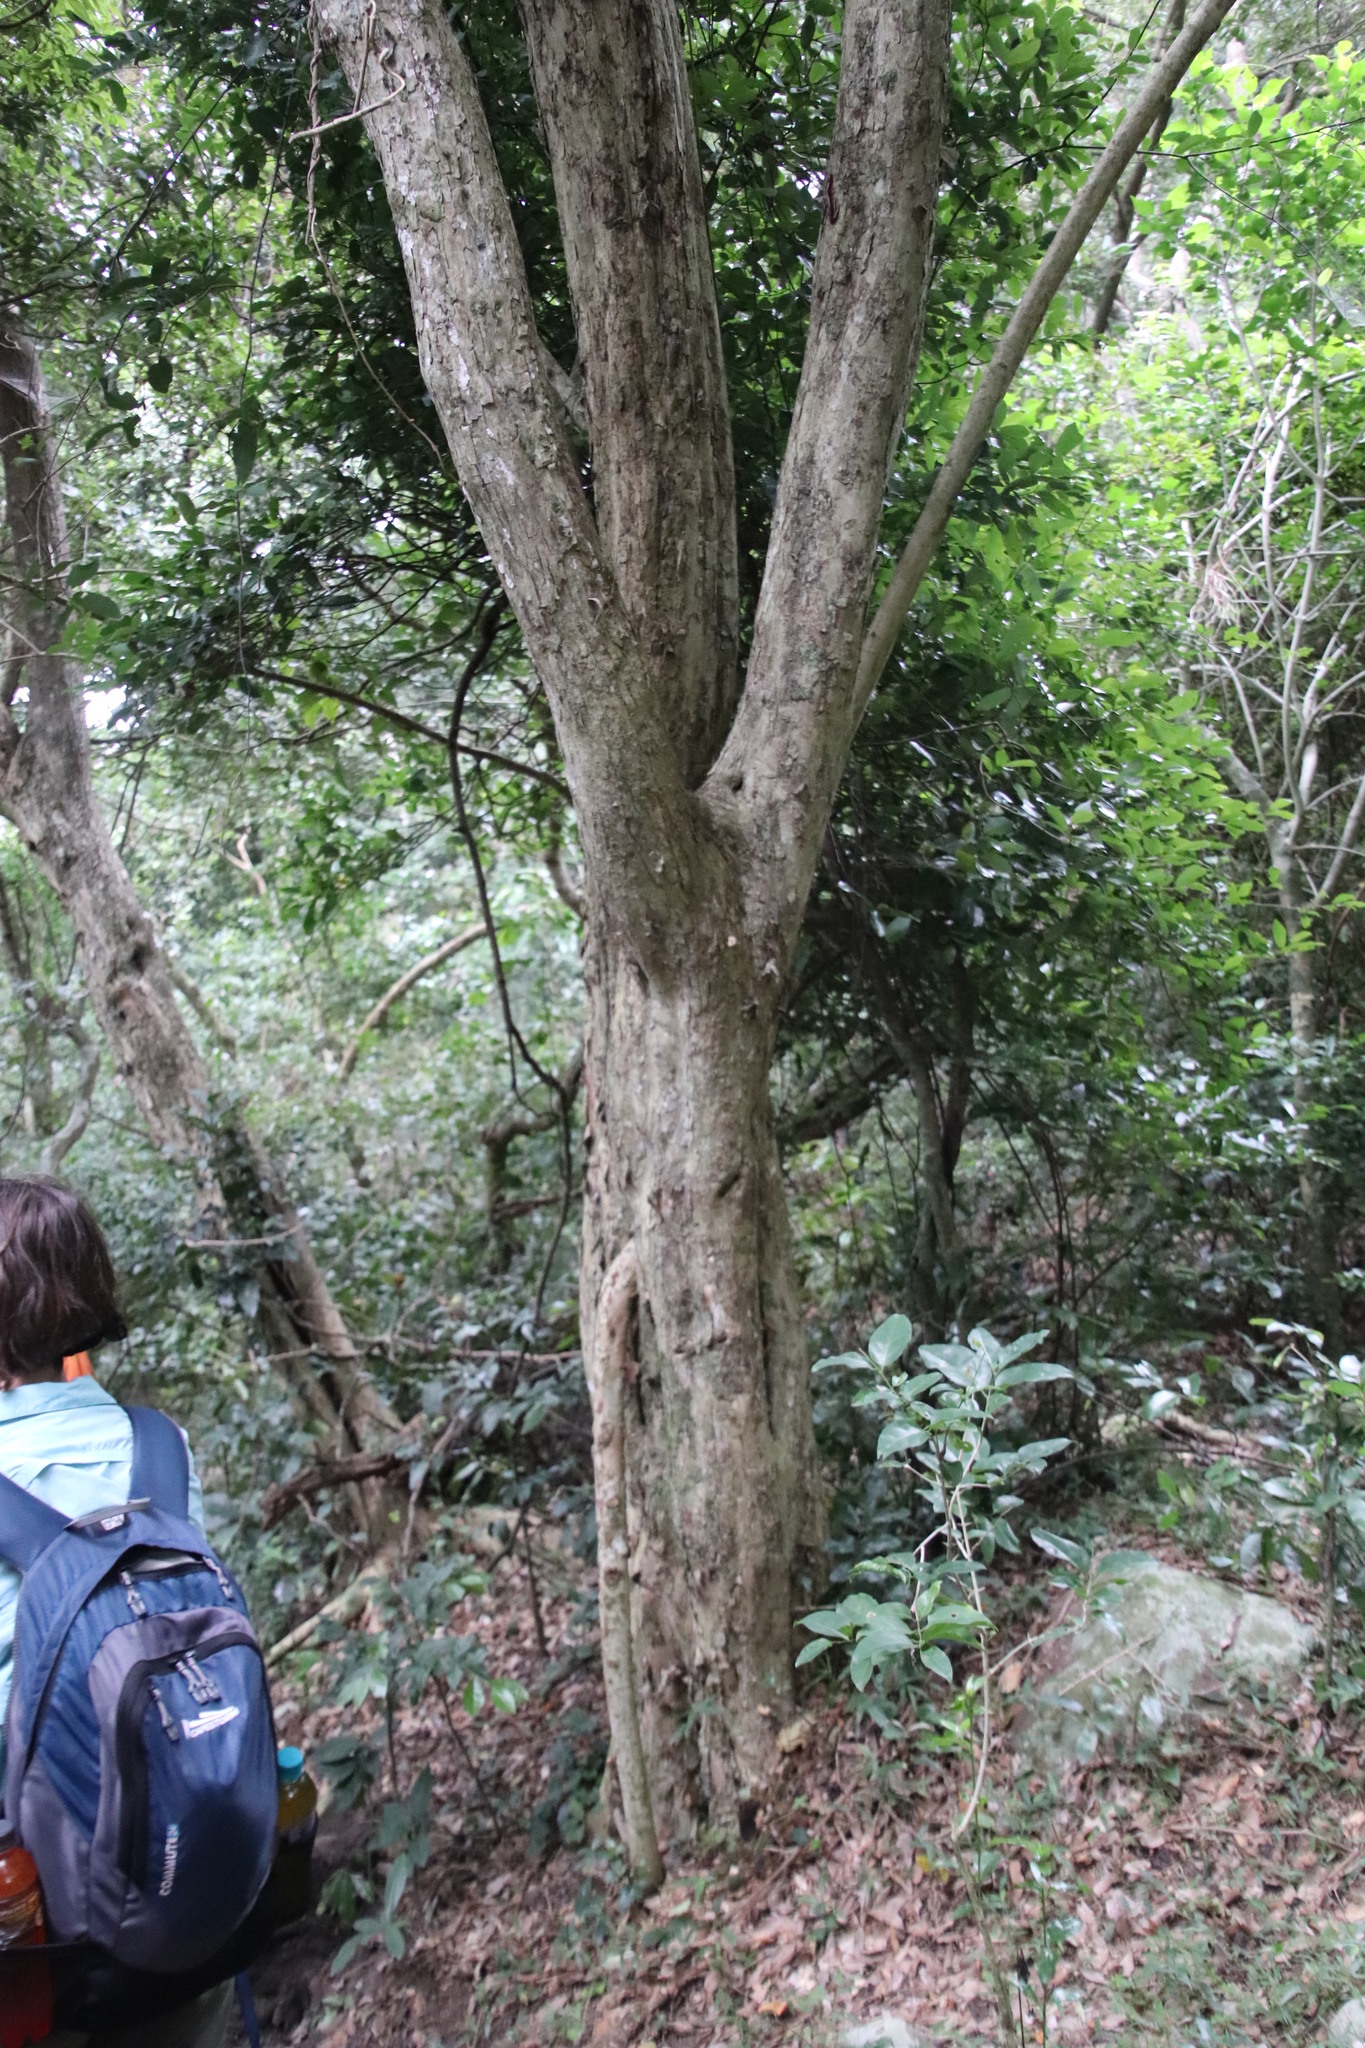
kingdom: Plantae
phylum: Tracheophyta
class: Magnoliopsida
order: Fabales
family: Fabaceae
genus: Millettia
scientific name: Millettia grandis
